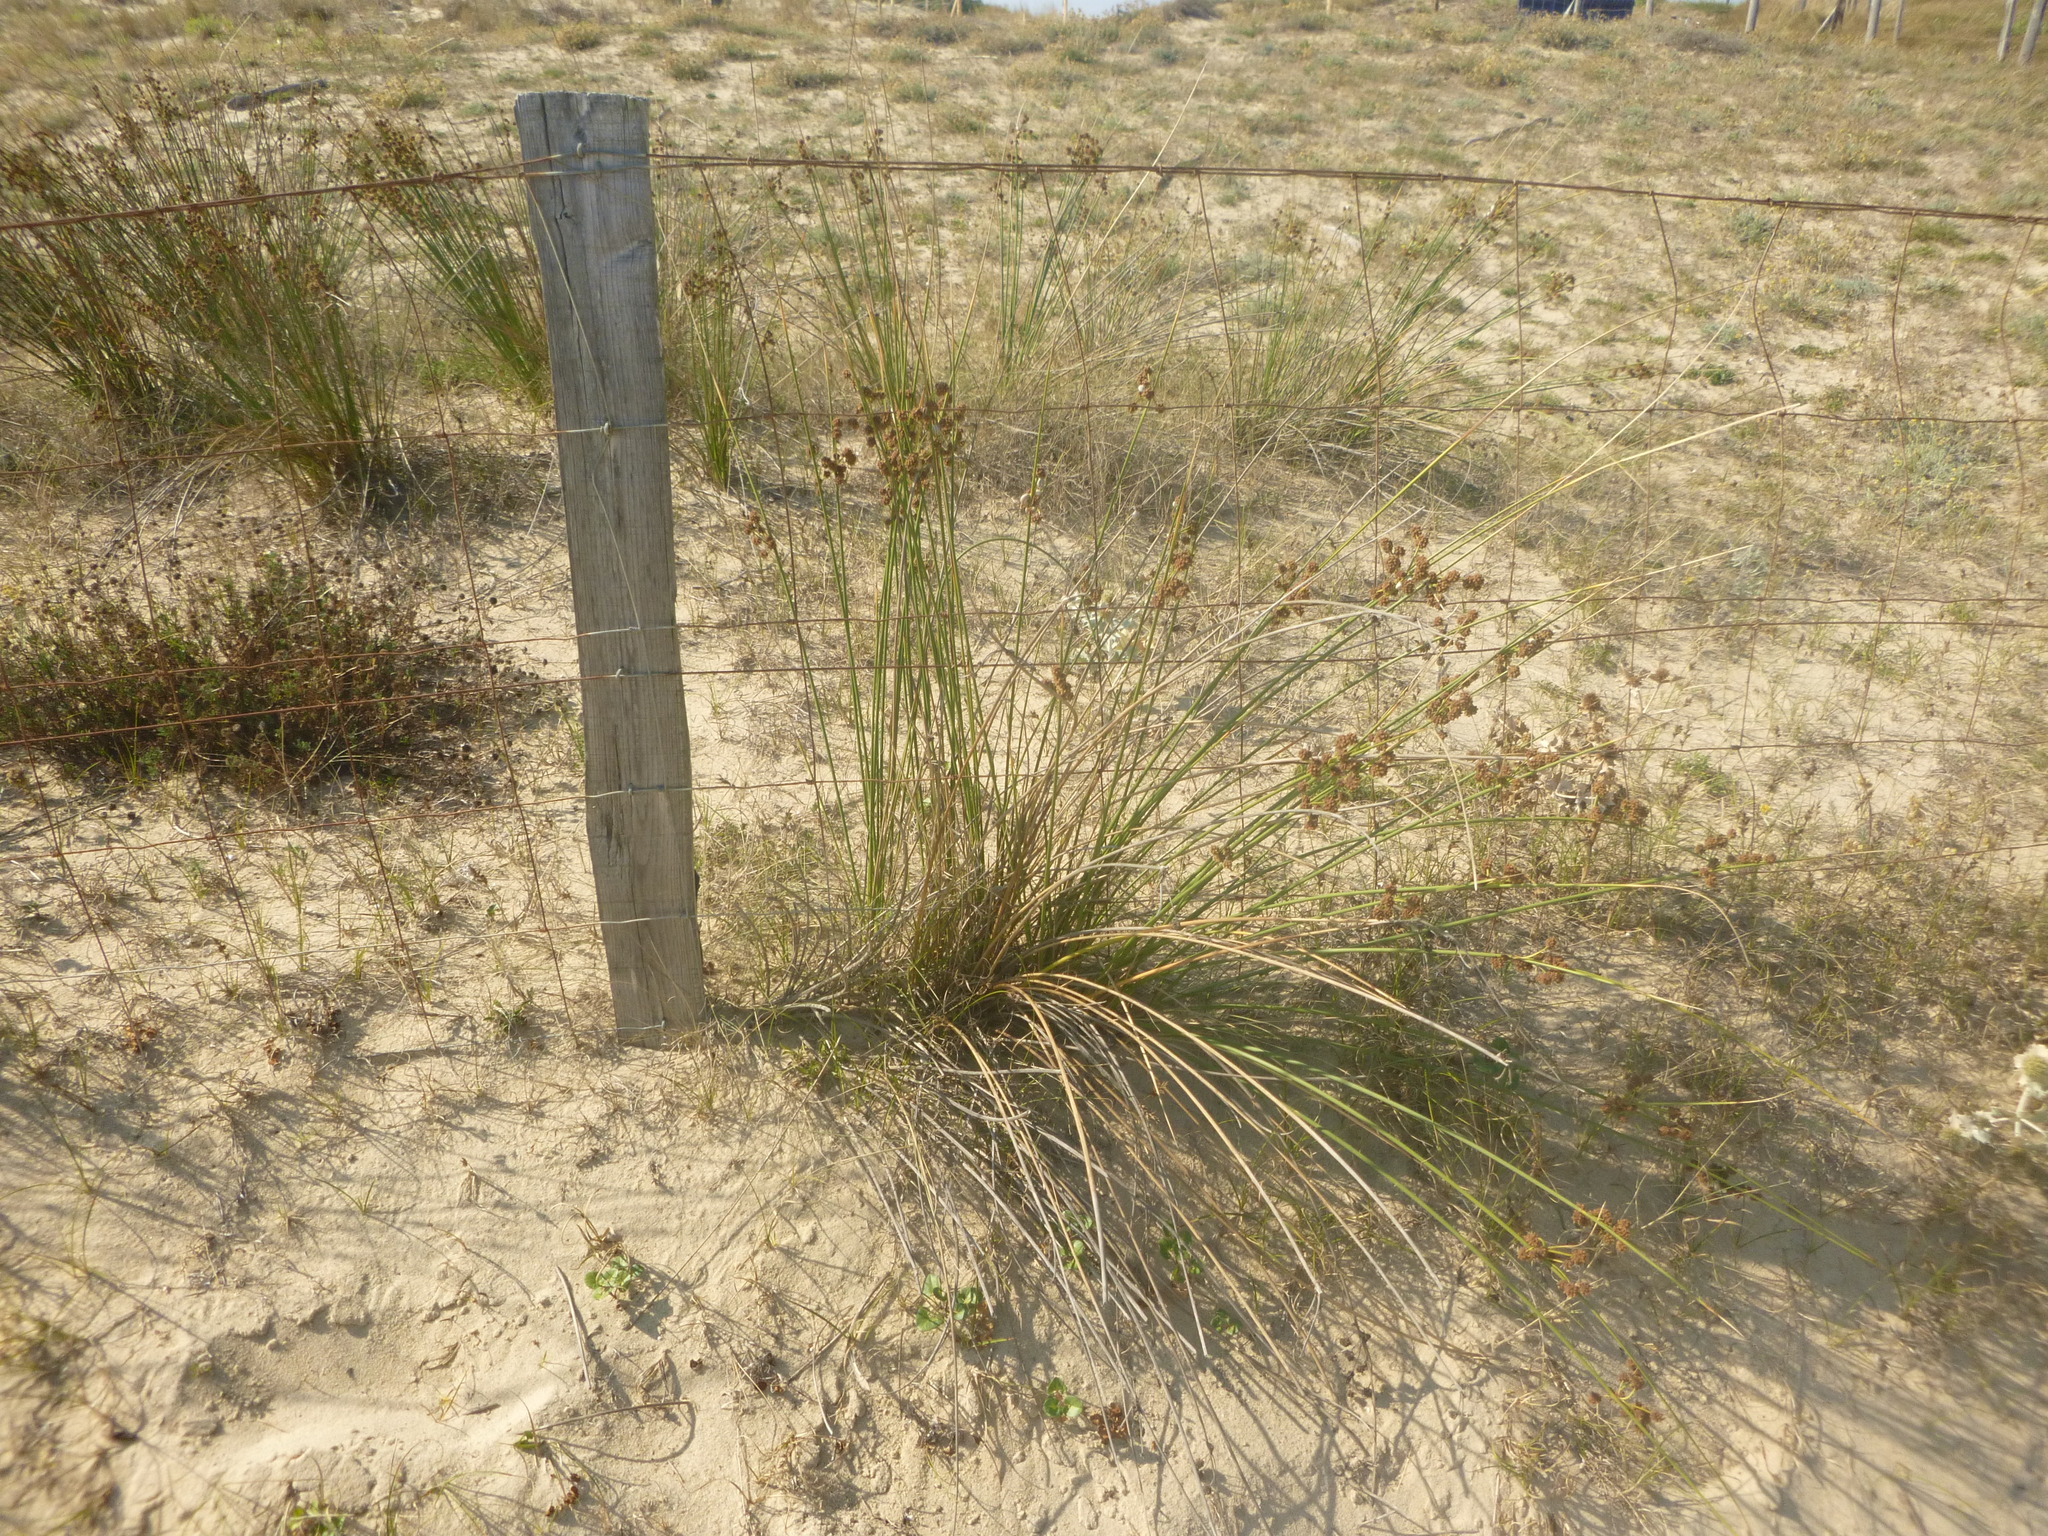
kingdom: Plantae
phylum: Tracheophyta
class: Liliopsida
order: Poales
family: Cyperaceae
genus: Scirpoides
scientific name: Scirpoides holoschoenus
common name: Round-headed club-rush
